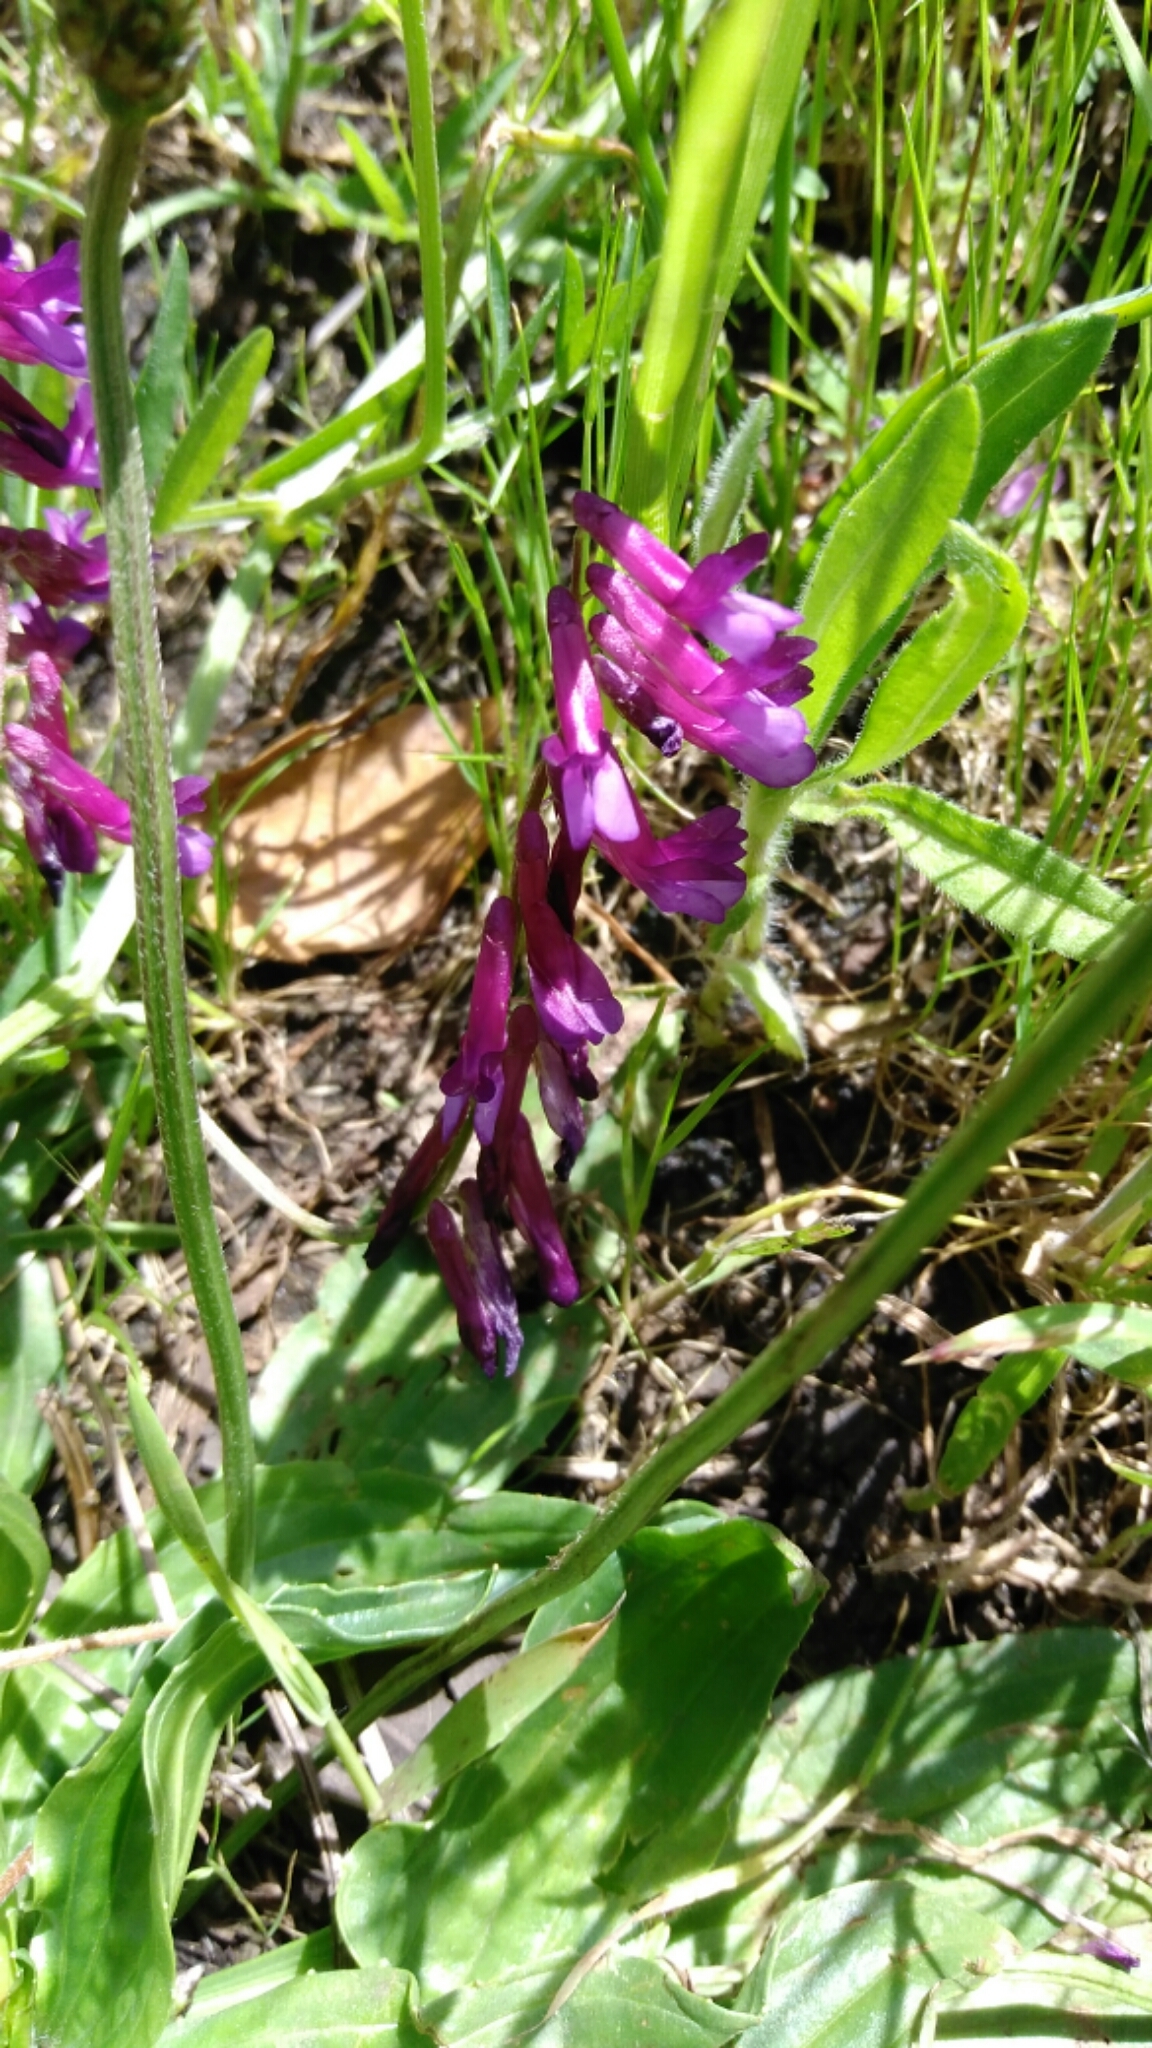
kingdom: Plantae
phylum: Tracheophyta
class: Magnoliopsida
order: Fabales
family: Fabaceae
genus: Vicia
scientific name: Vicia villosa
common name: Fodder vetch
